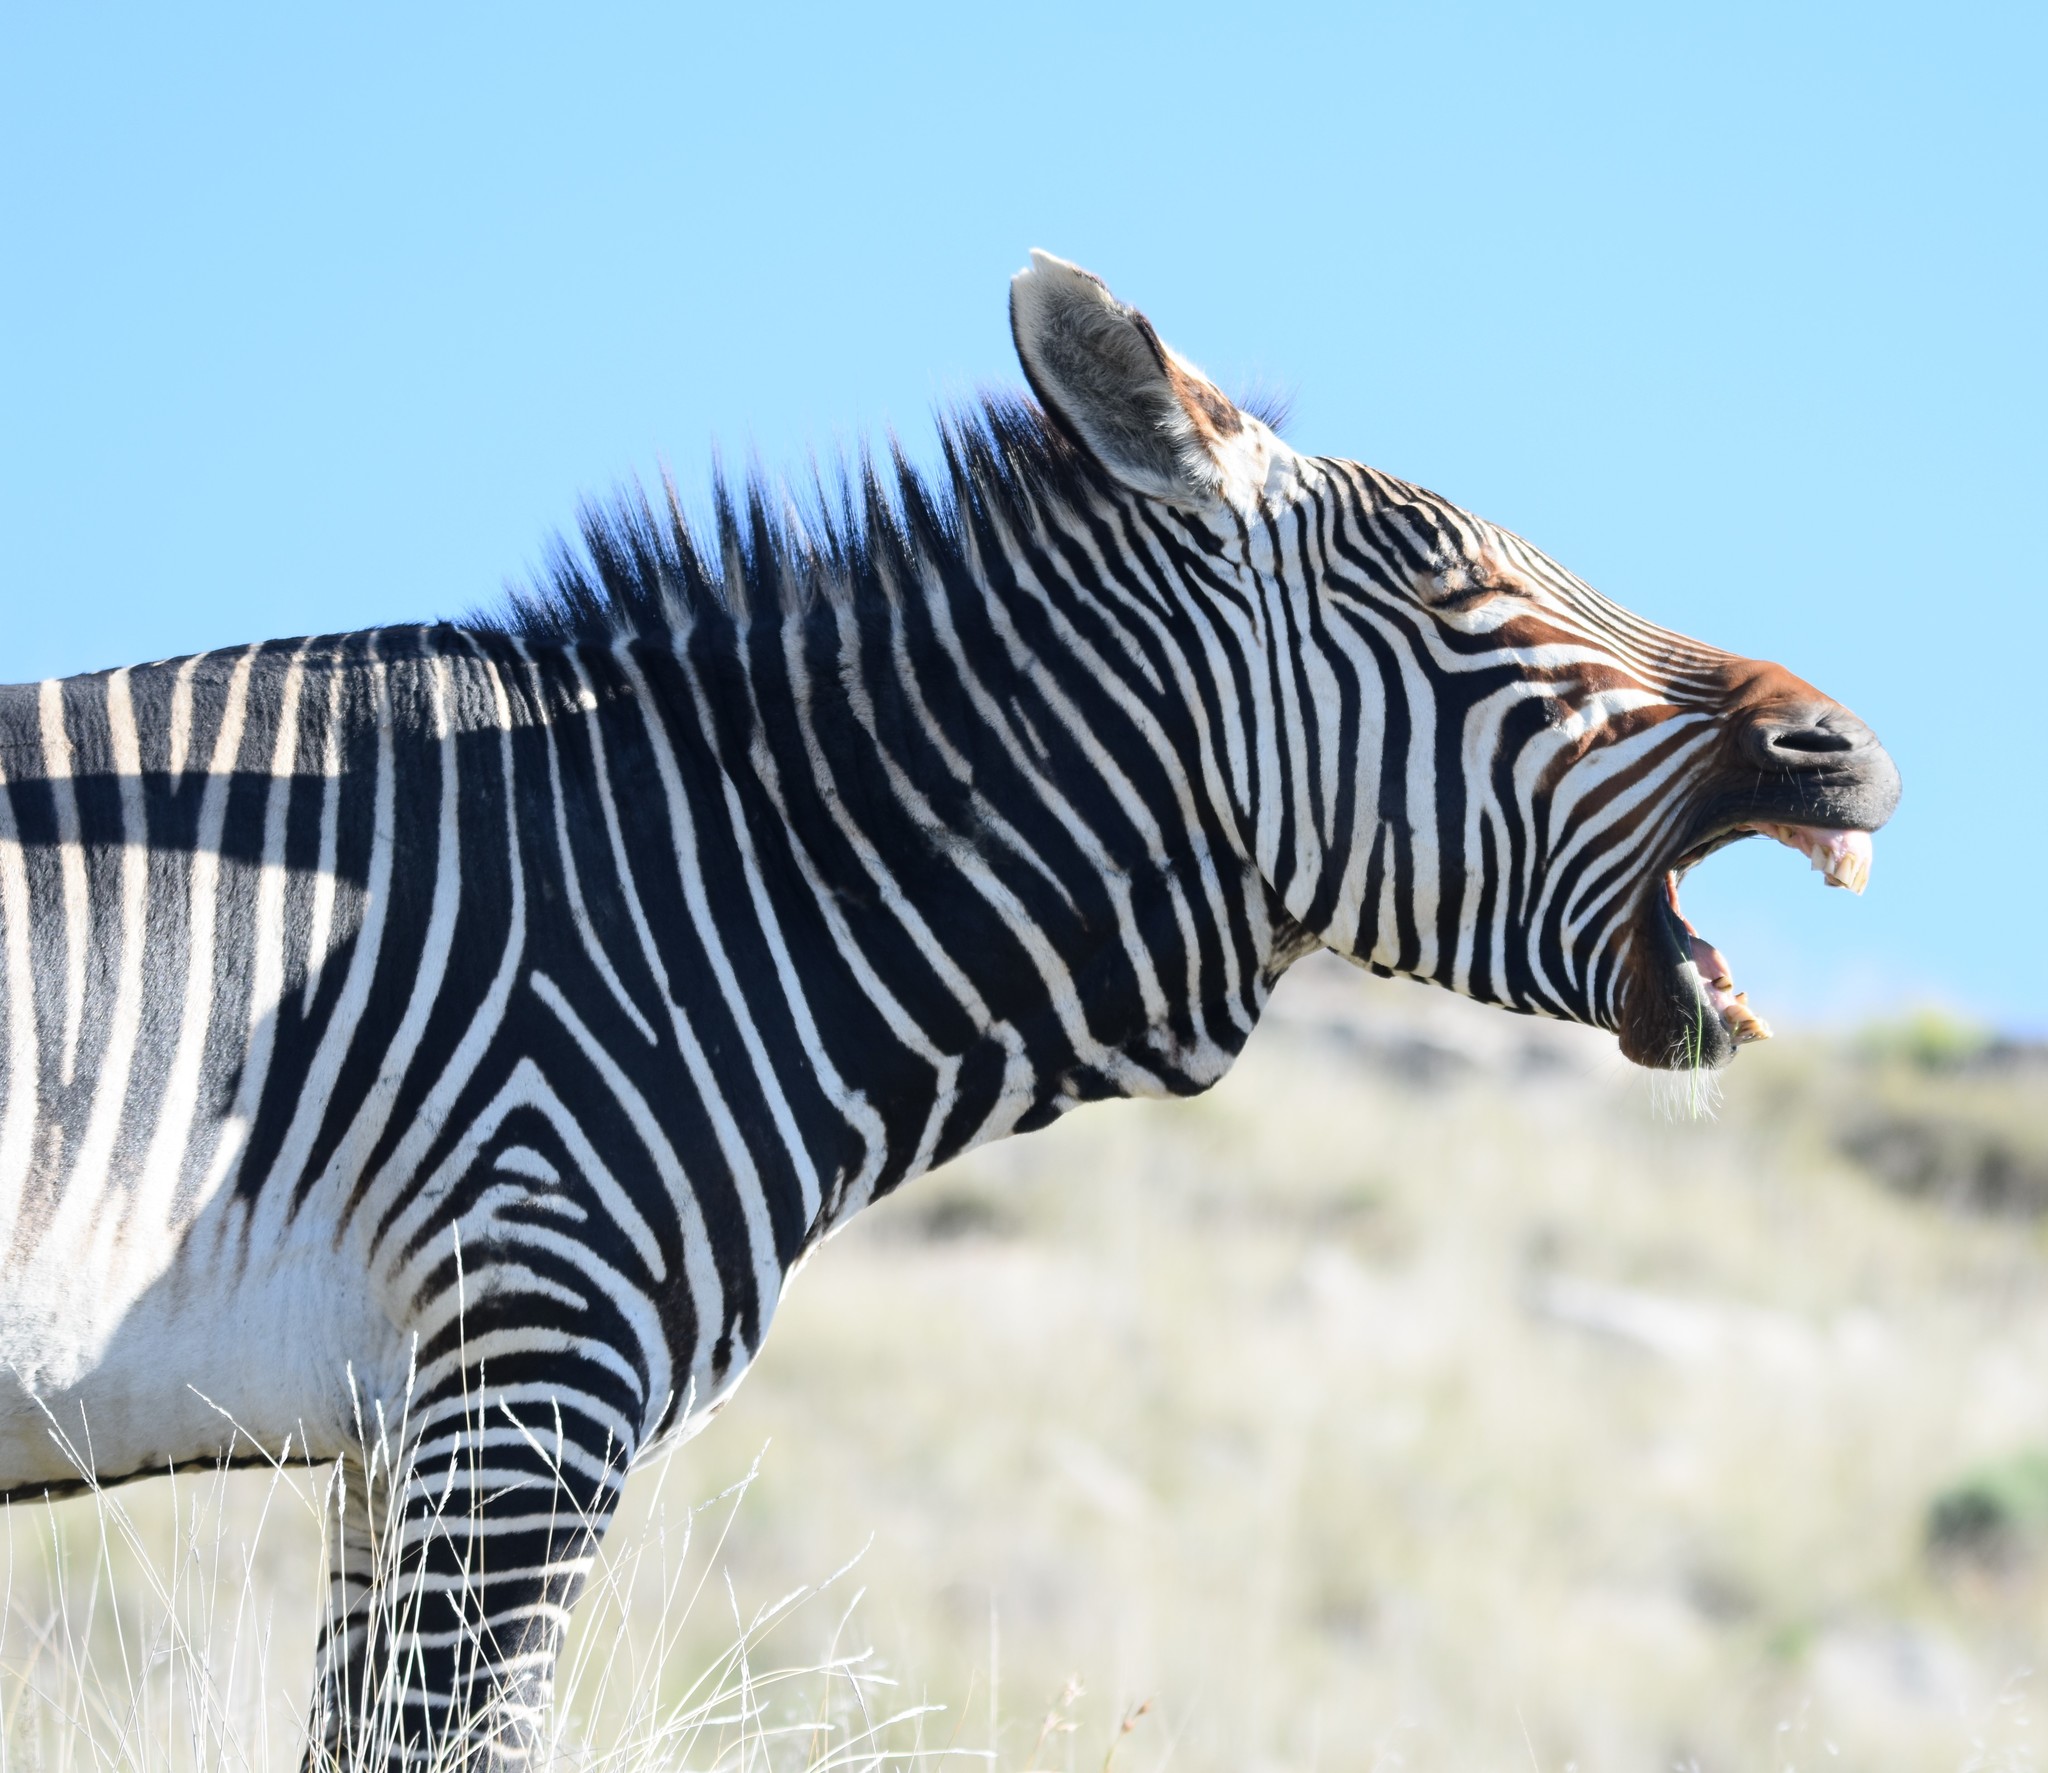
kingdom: Animalia
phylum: Chordata
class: Mammalia
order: Perissodactyla
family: Equidae
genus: Equus
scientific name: Equus zebra
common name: Mountain zebra
